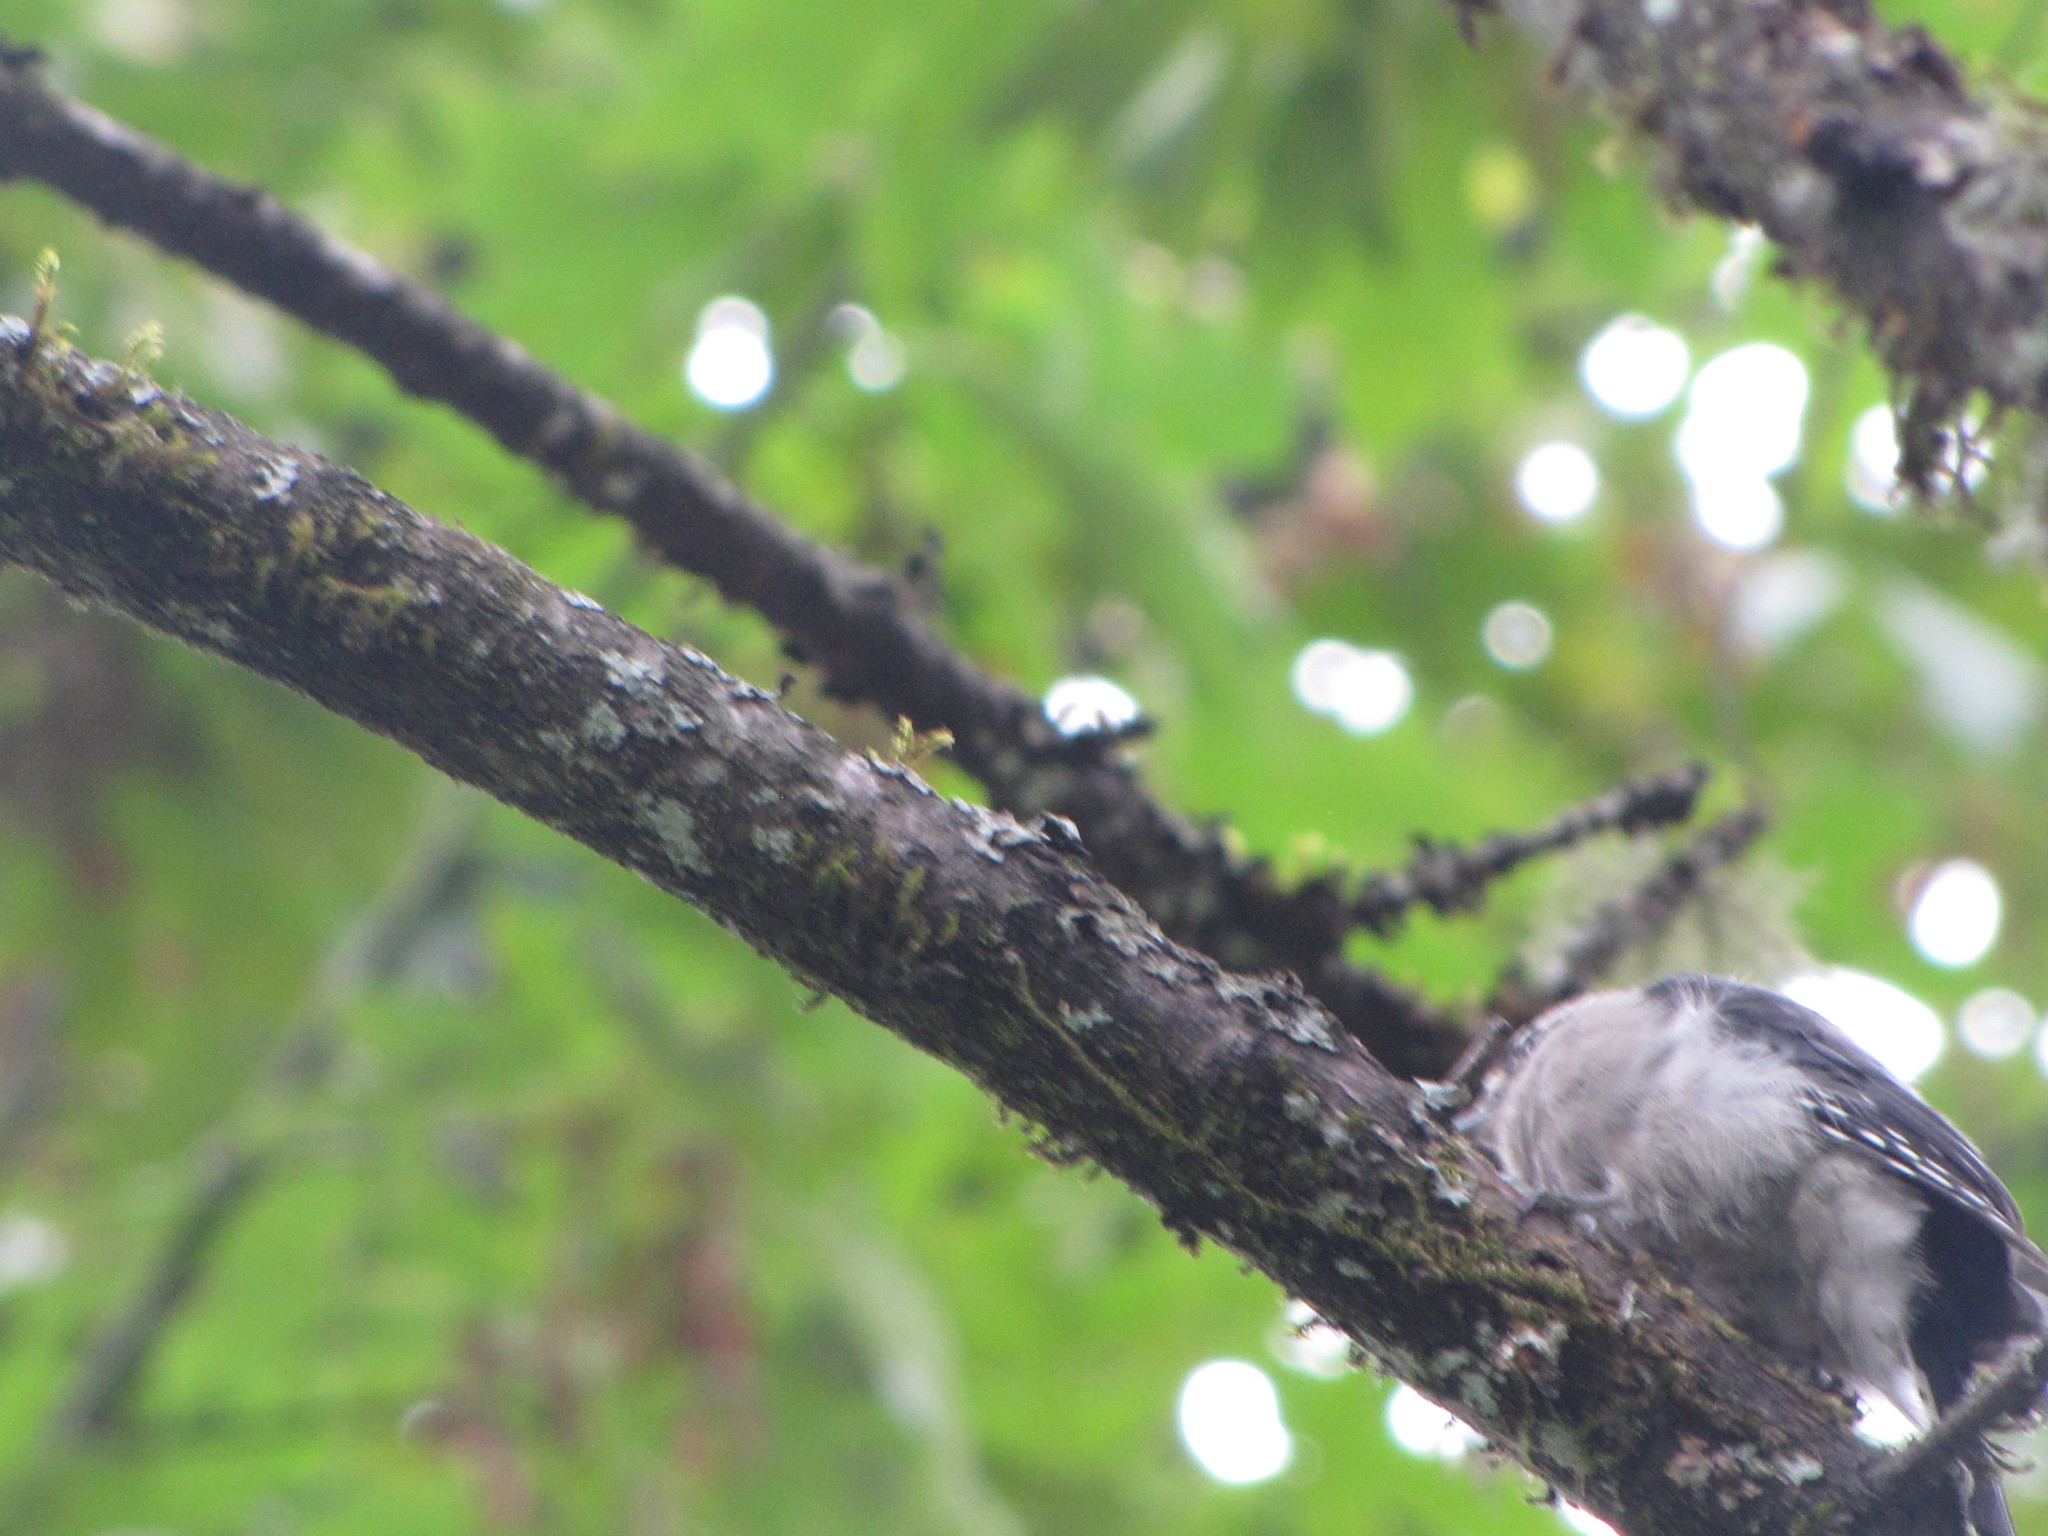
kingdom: Animalia
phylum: Chordata
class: Aves
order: Piciformes
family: Picidae
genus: Dryobates
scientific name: Dryobates pubescens
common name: Downy woodpecker
